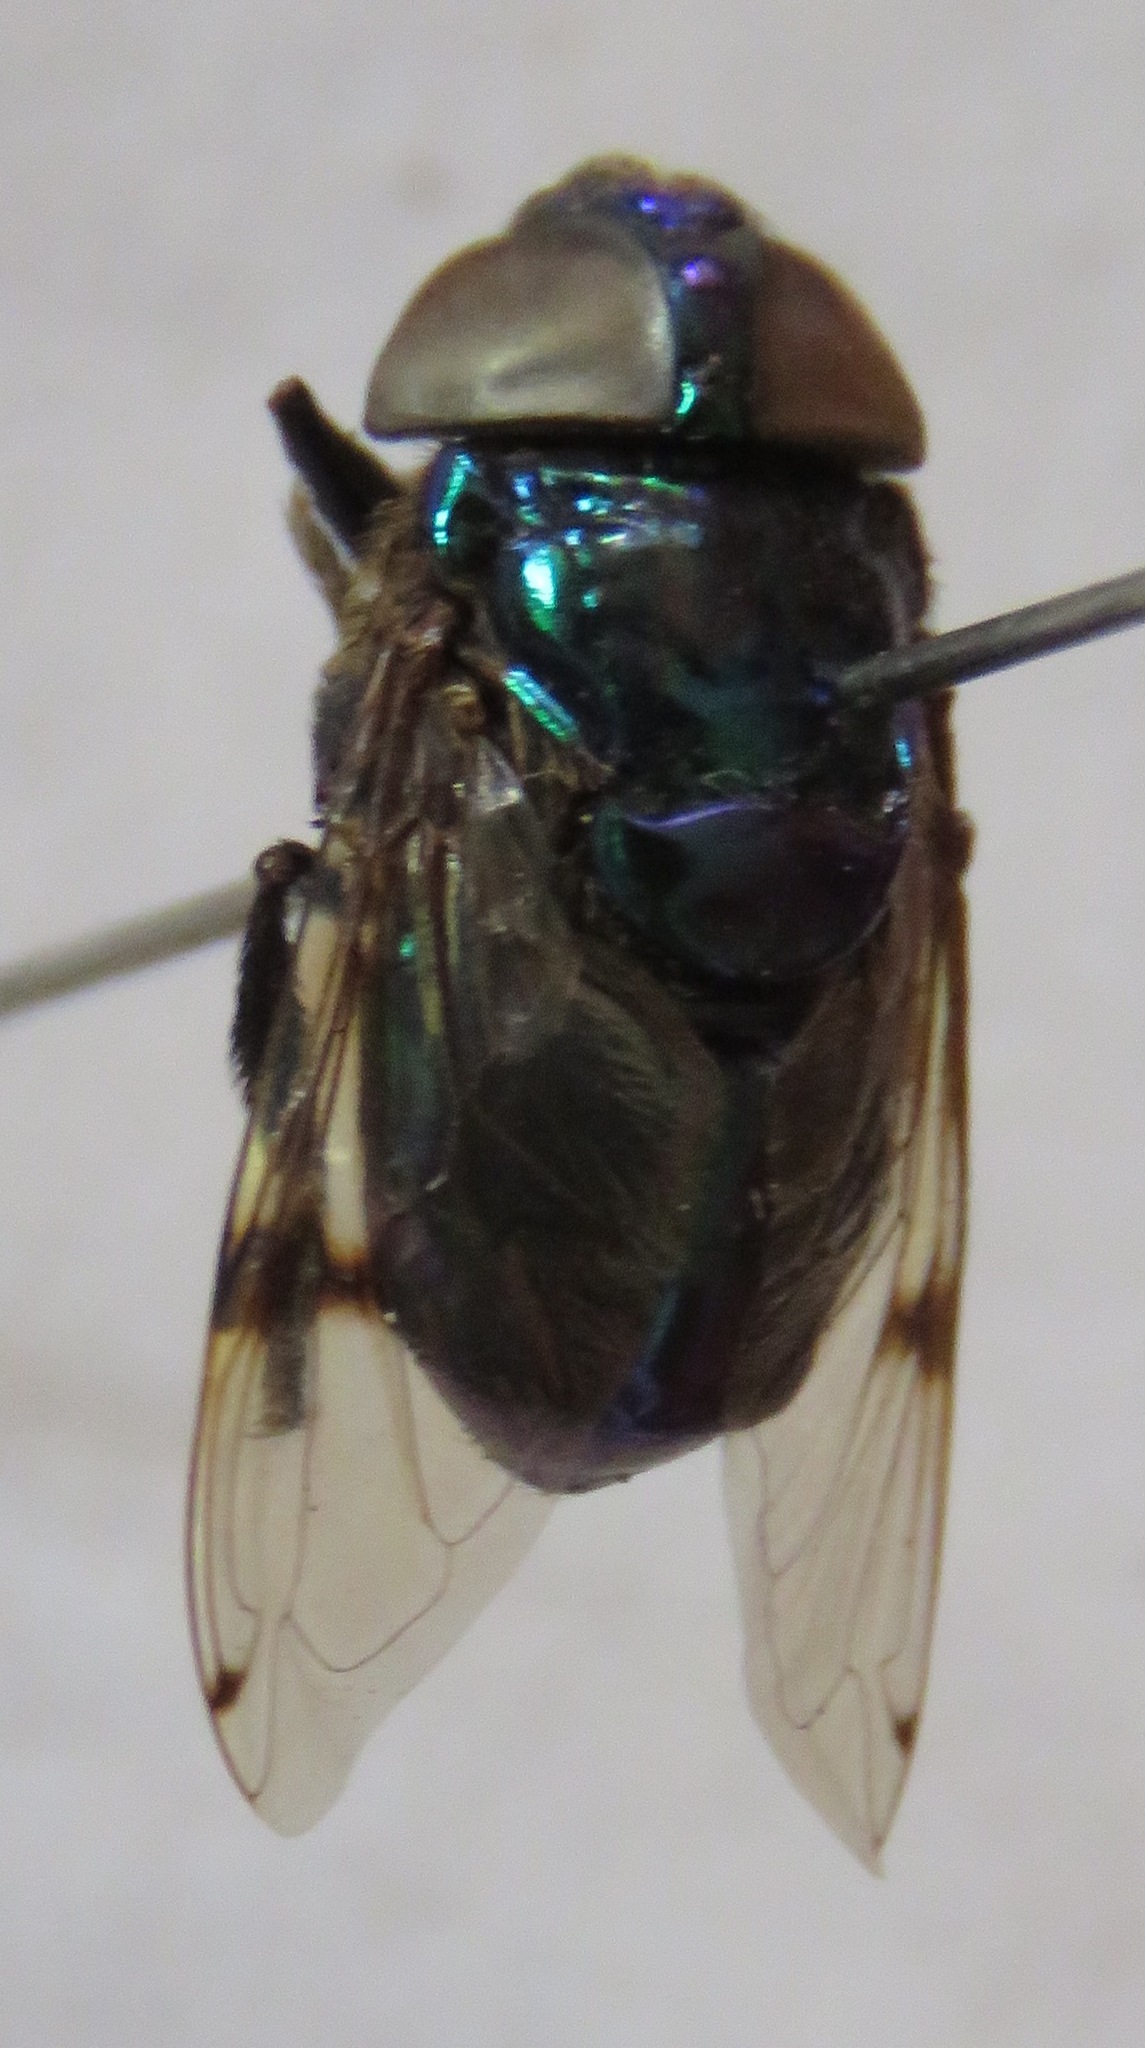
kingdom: Animalia
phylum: Arthropoda
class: Insecta
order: Diptera
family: Syrphidae
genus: Ornidia
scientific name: Ornidia obesa
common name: Syrphid fly
